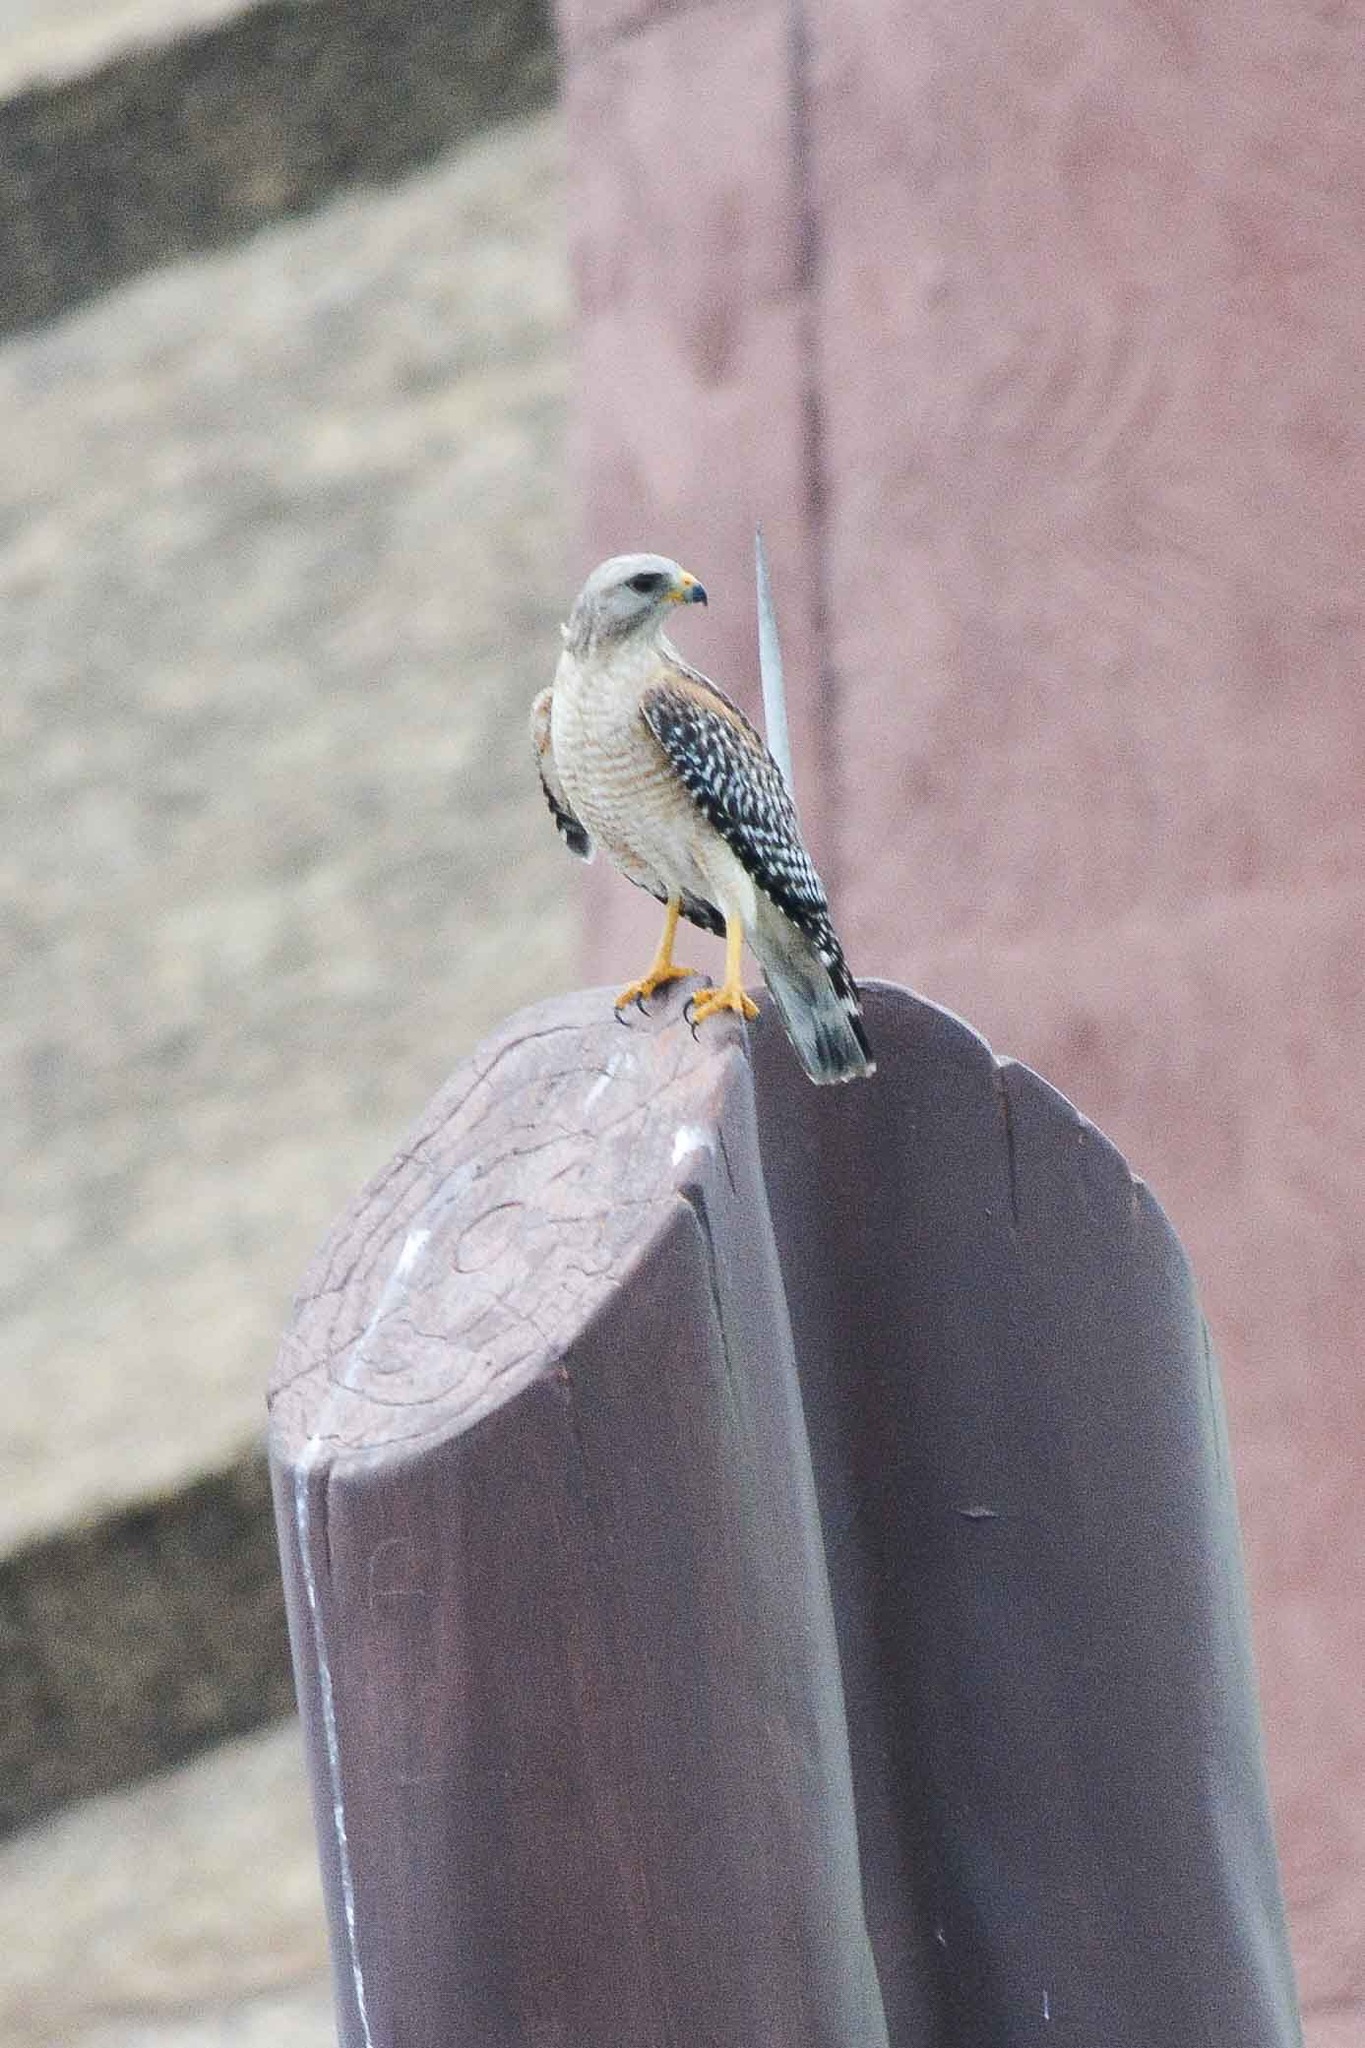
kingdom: Animalia
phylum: Chordata
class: Aves
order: Accipitriformes
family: Accipitridae
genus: Buteo
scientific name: Buteo lineatus
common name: Red-shouldered hawk
